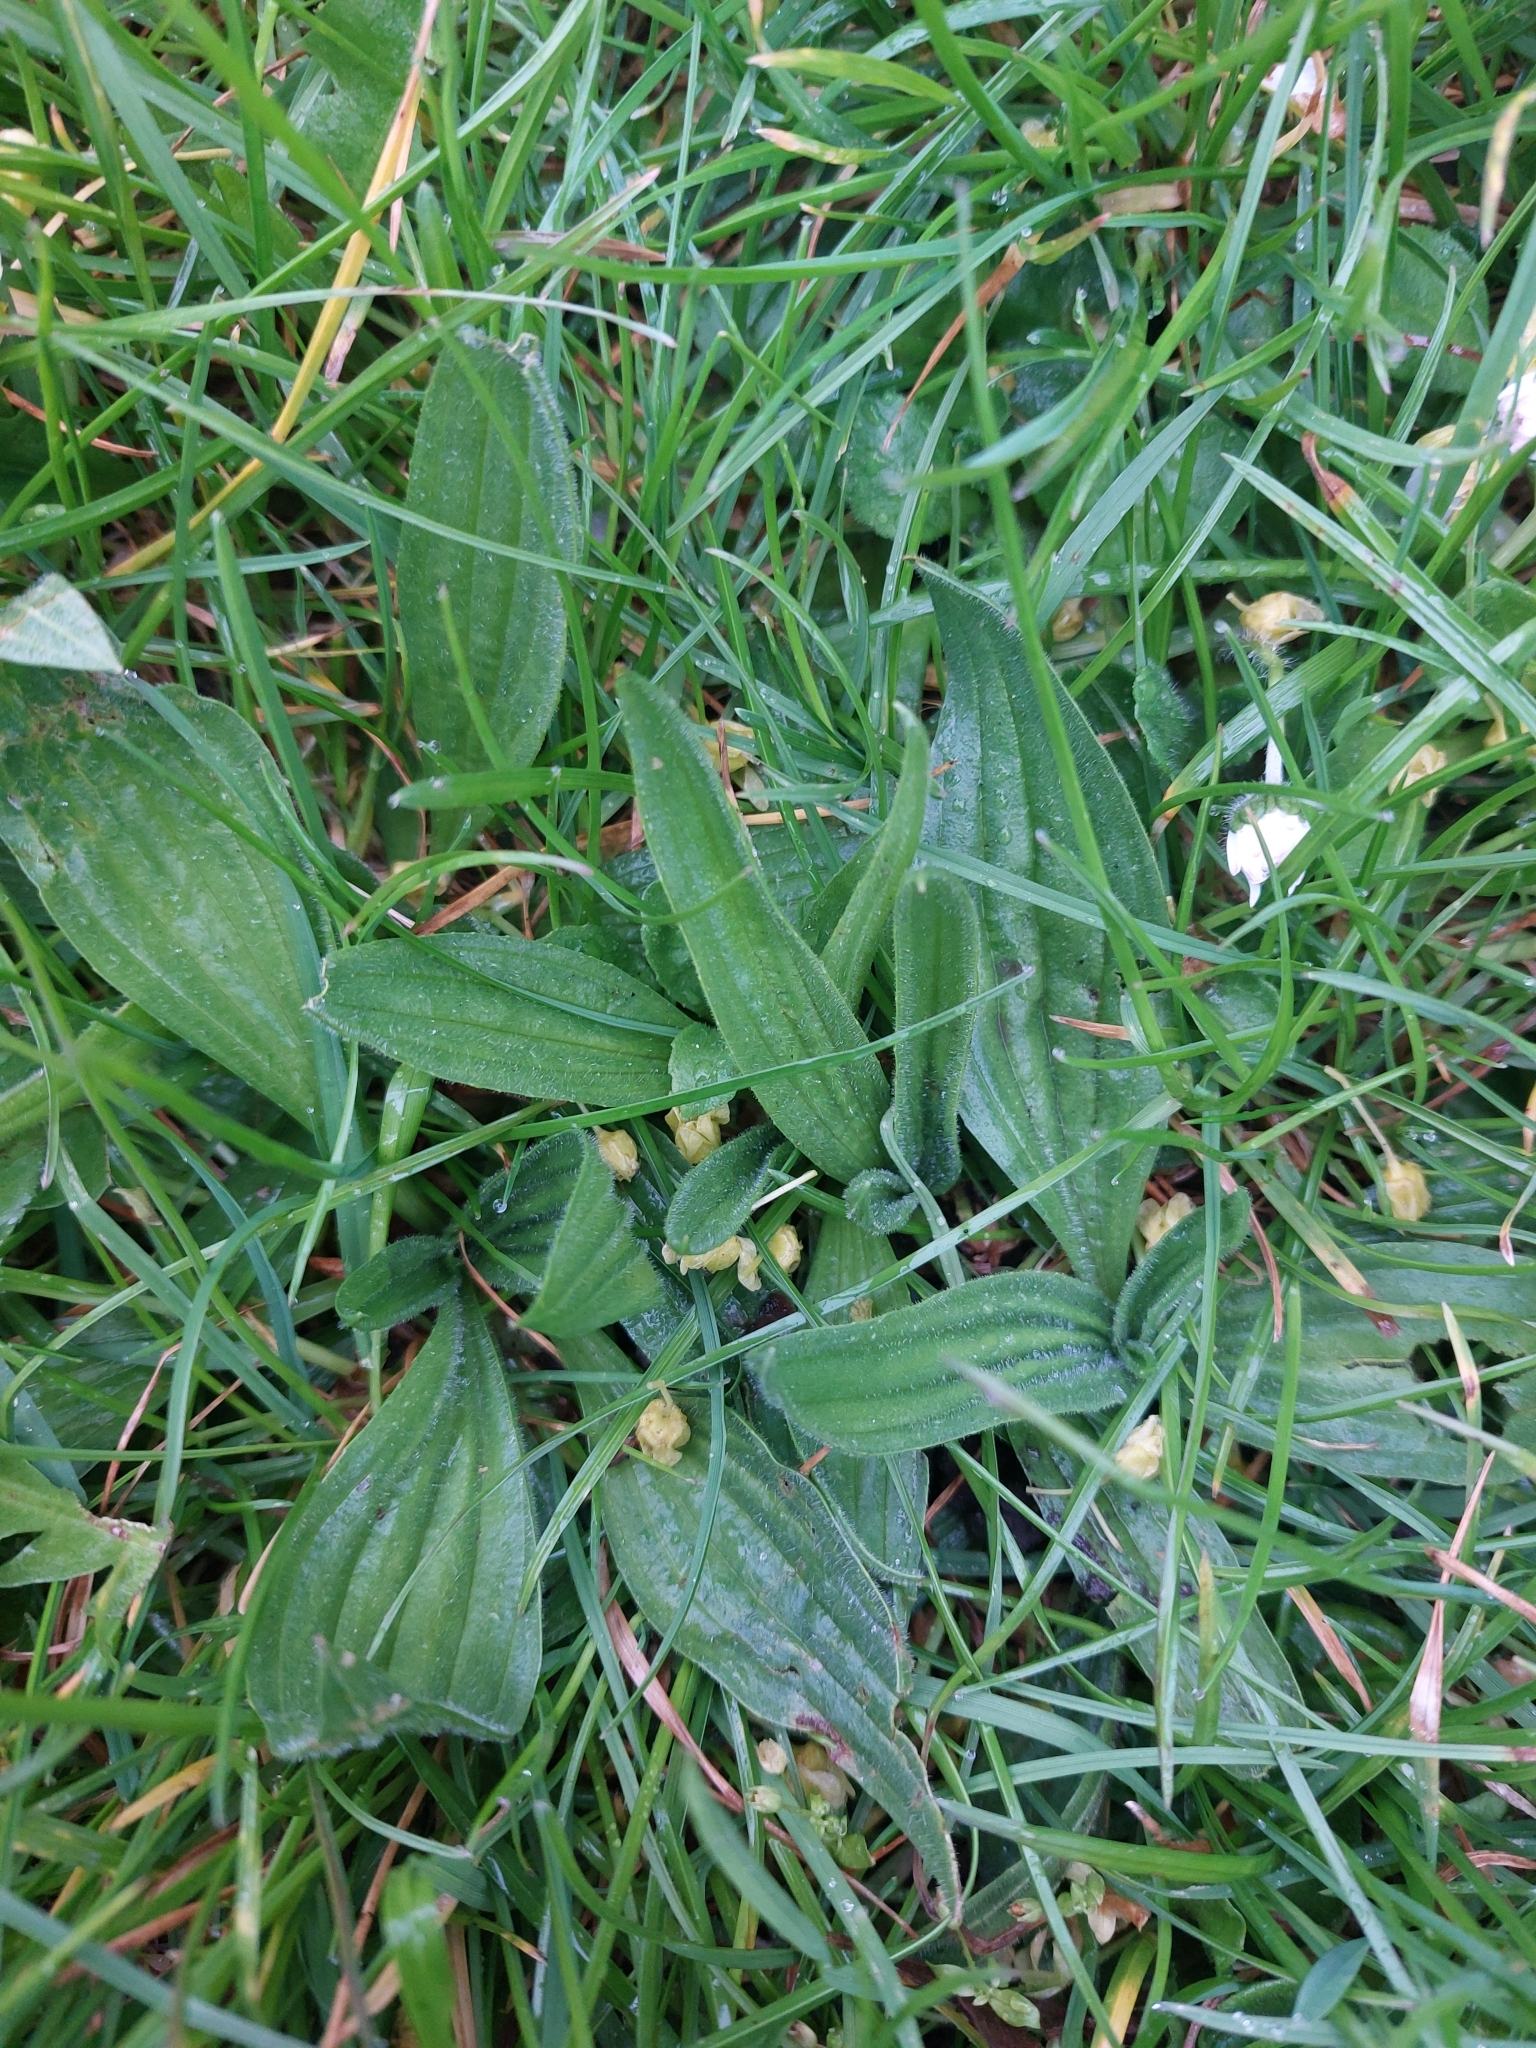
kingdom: Plantae
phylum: Tracheophyta
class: Magnoliopsida
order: Lamiales
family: Plantaginaceae
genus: Plantago
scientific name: Plantago lanceolata
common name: Ribwort plantain
